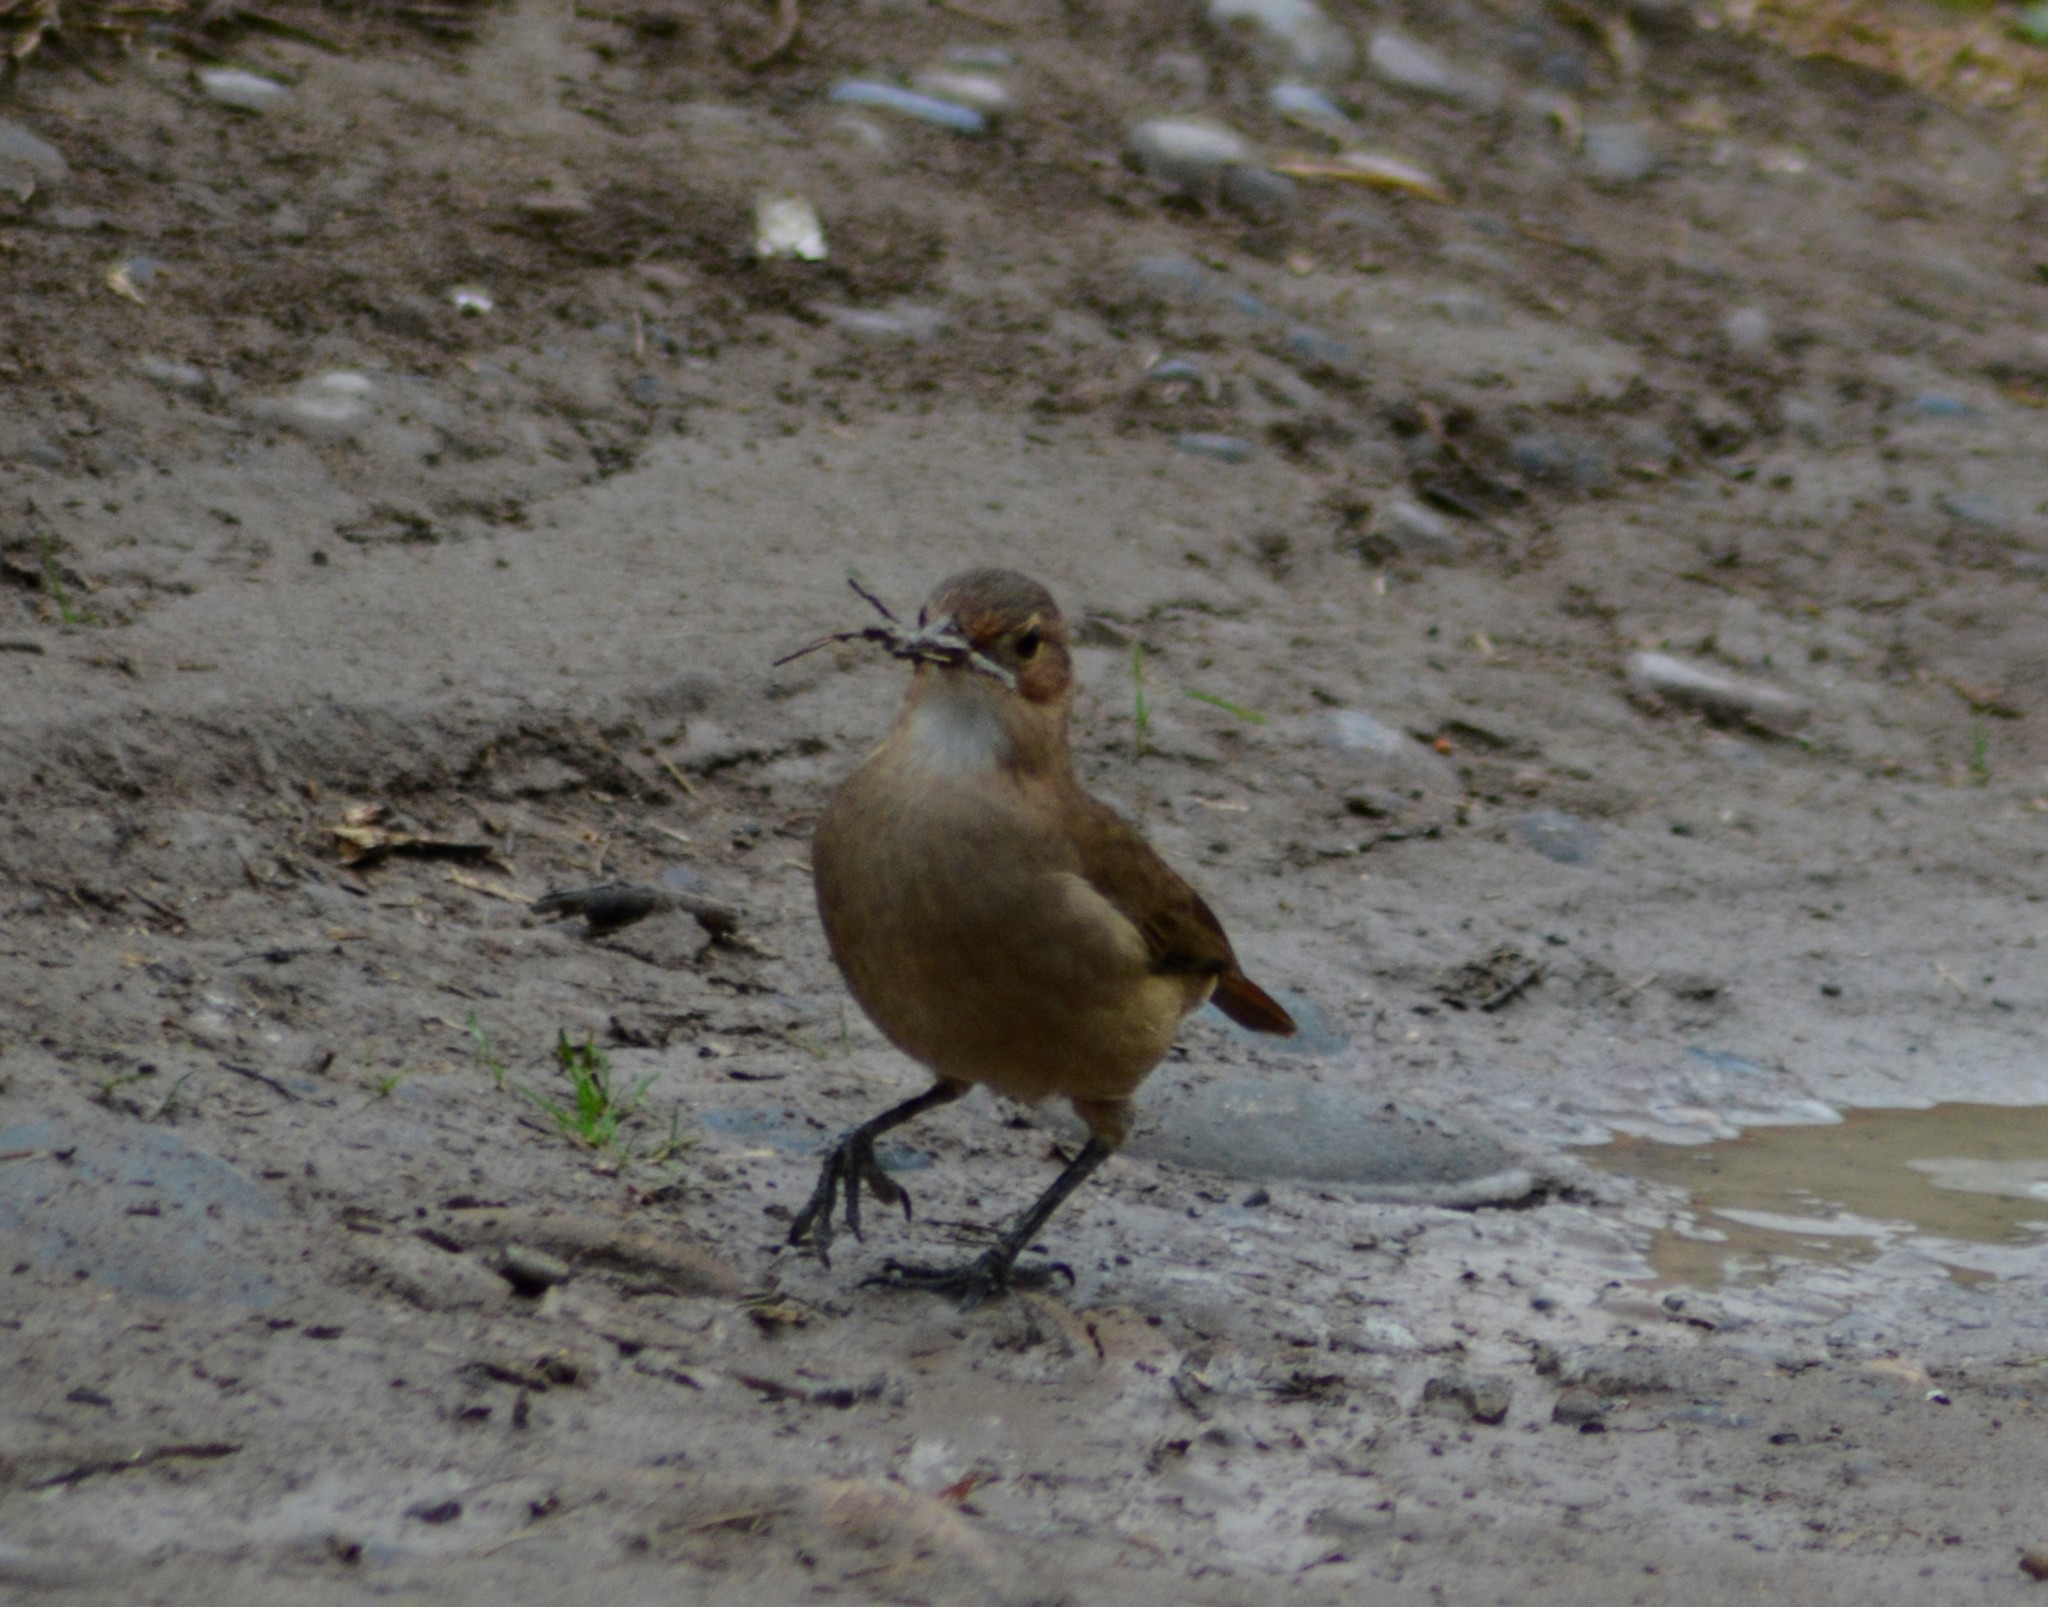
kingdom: Animalia
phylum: Chordata
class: Aves
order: Passeriformes
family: Furnariidae
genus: Furnarius
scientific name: Furnarius rufus
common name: Rufous hornero
